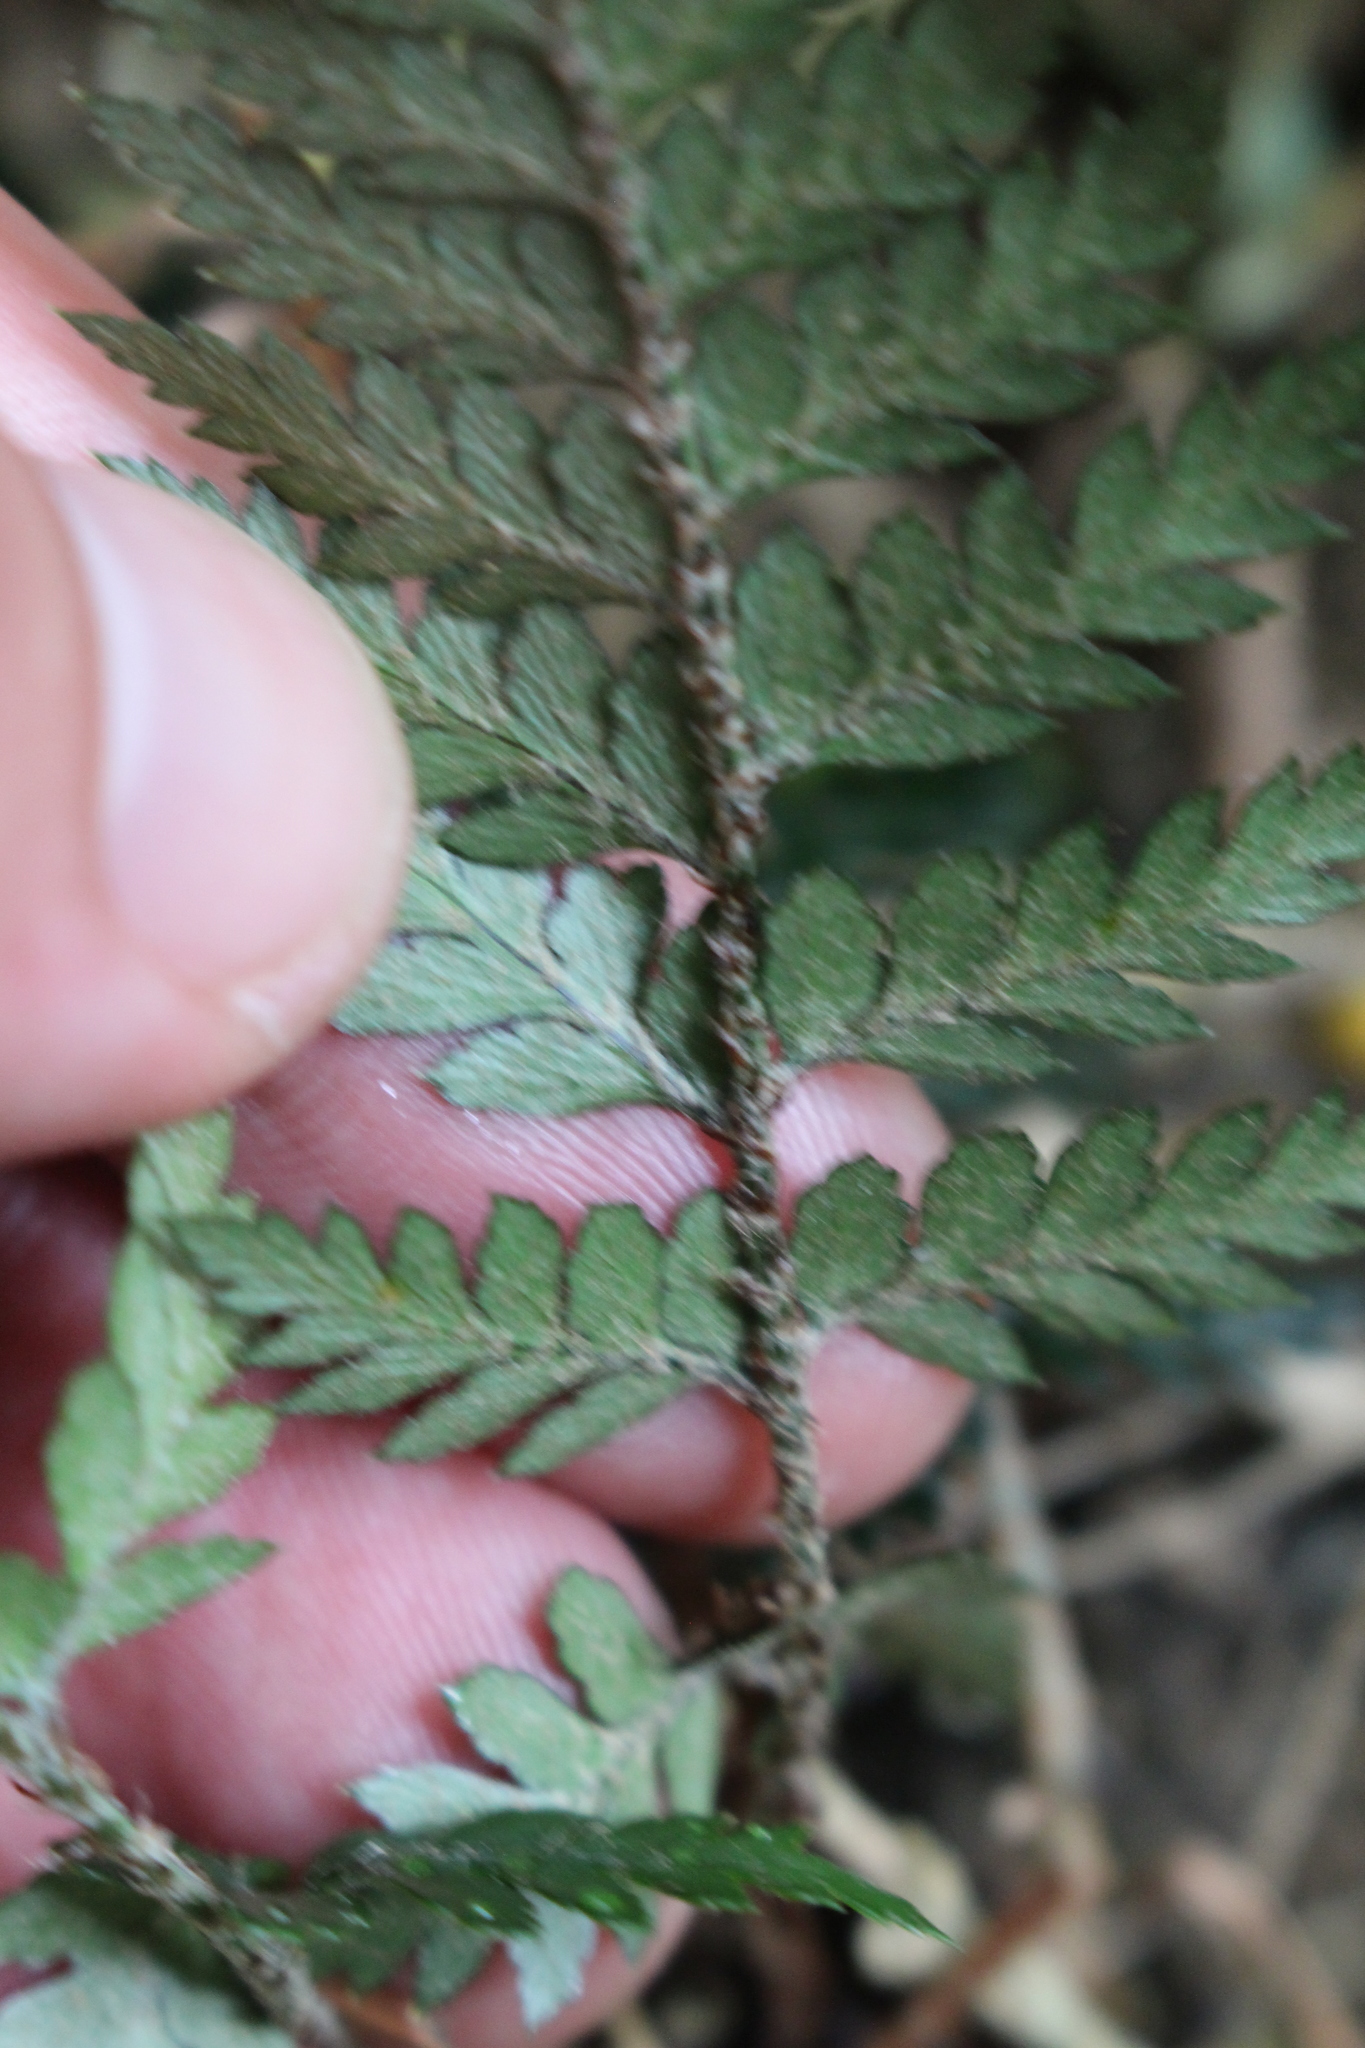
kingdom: Plantae
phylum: Tracheophyta
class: Polypodiopsida
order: Polypodiales
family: Dryopteridaceae
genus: Polystichum
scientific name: Polystichum oculatum
